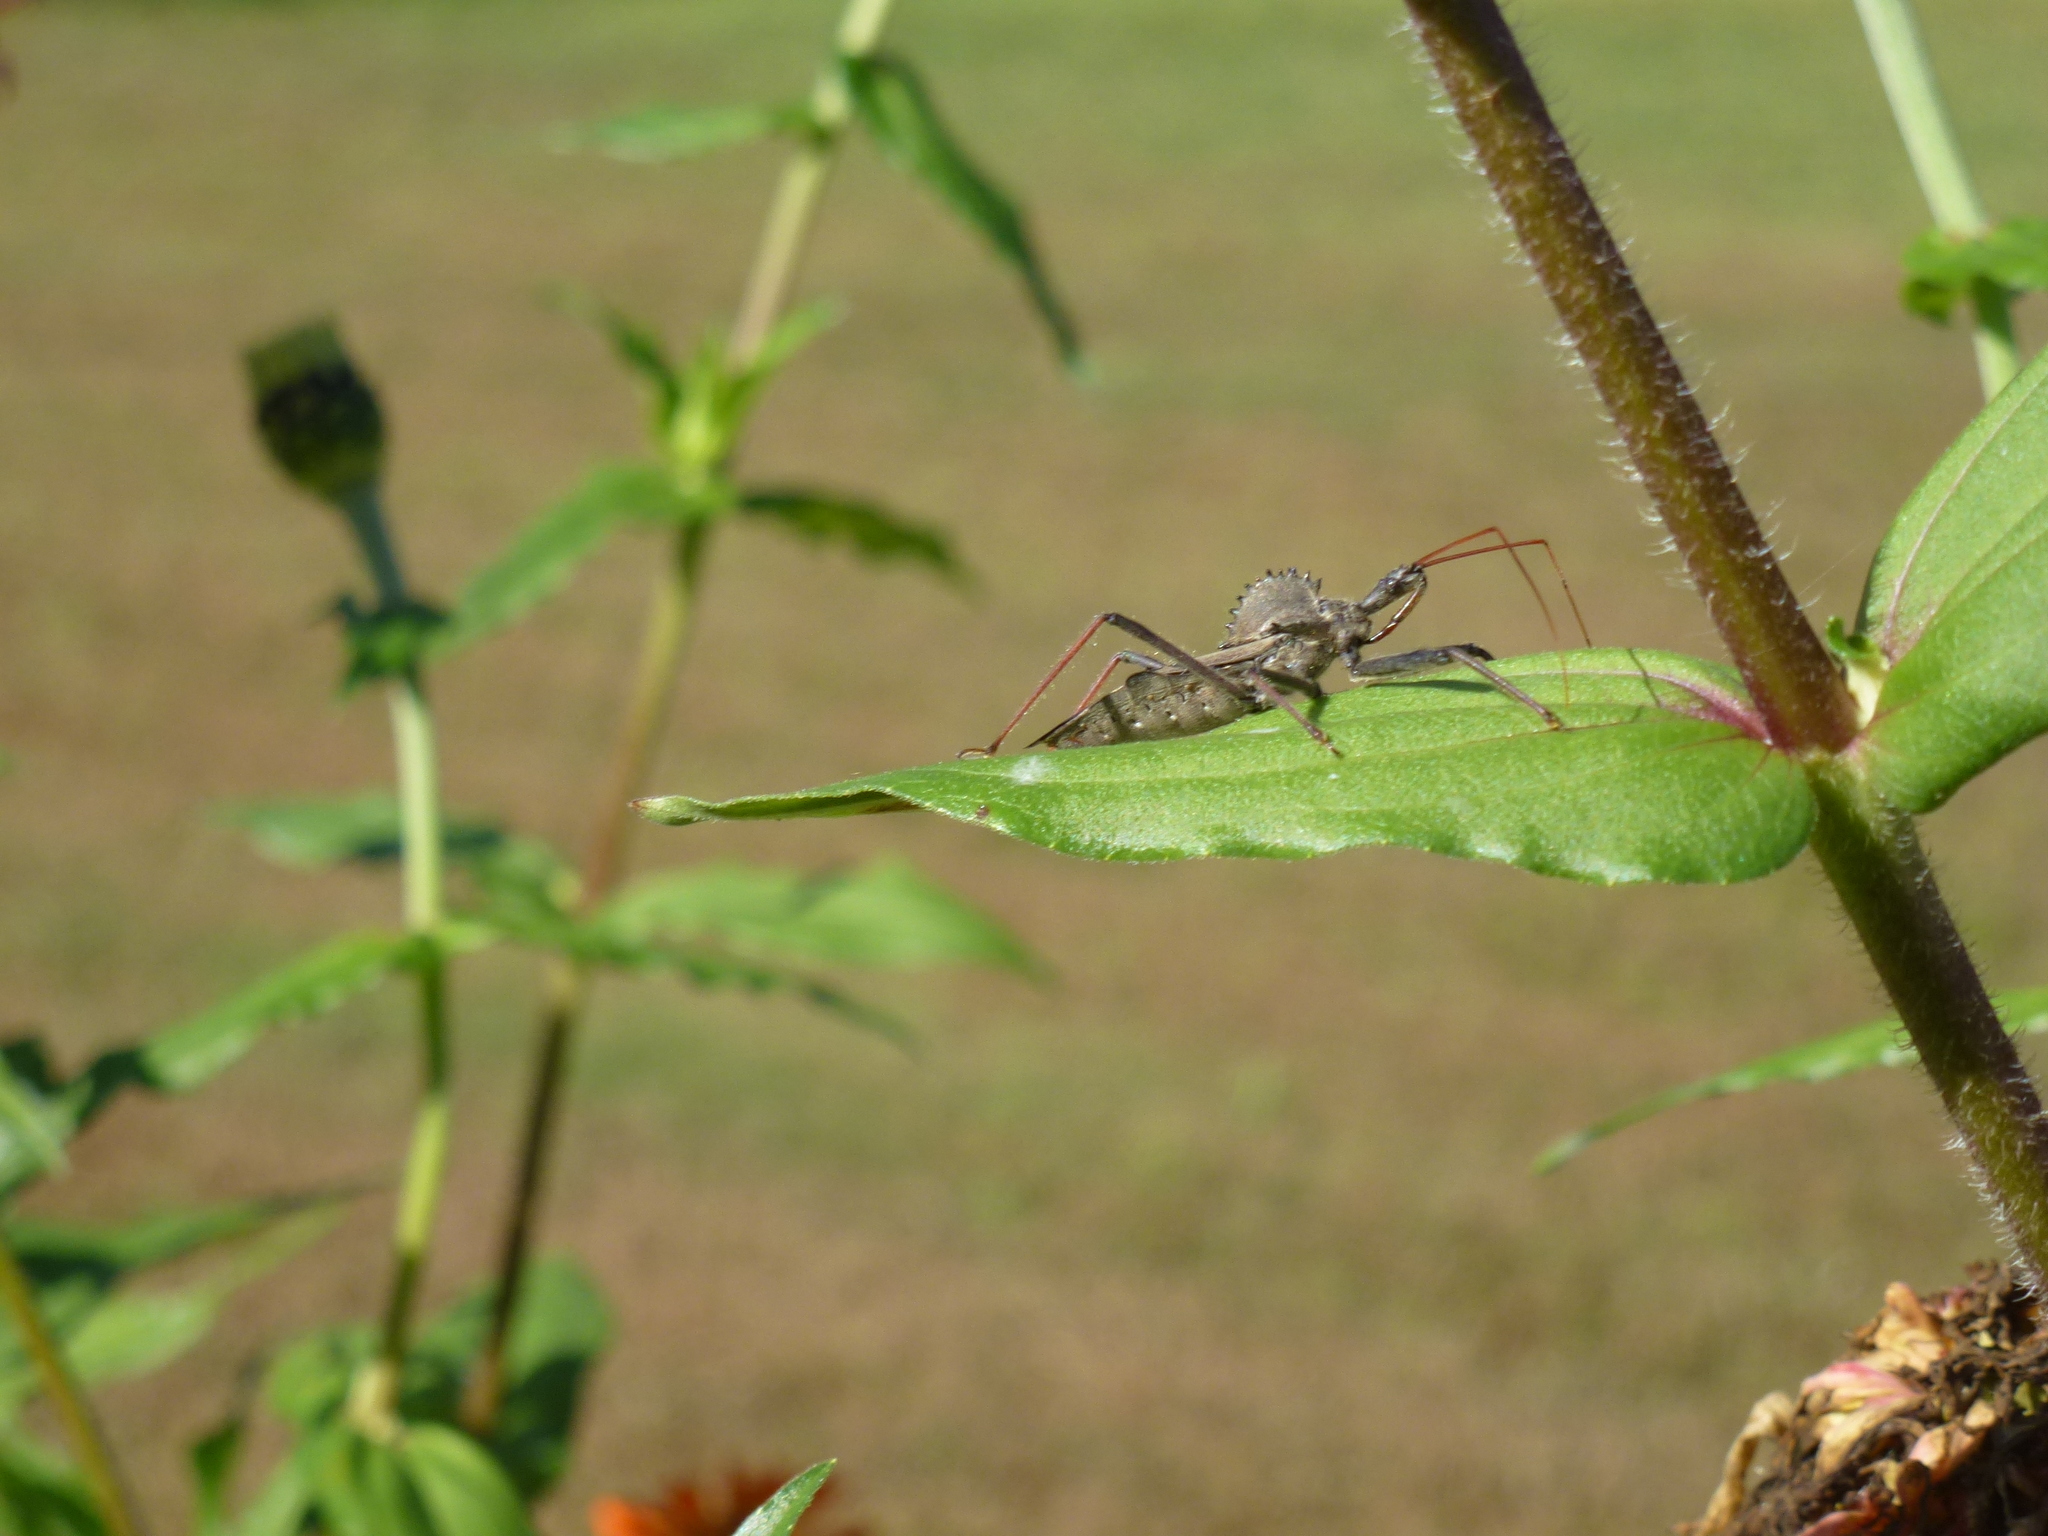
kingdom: Animalia
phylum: Arthropoda
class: Insecta
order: Hemiptera
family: Reduviidae
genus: Arilus
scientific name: Arilus cristatus
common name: North american wheel bug
